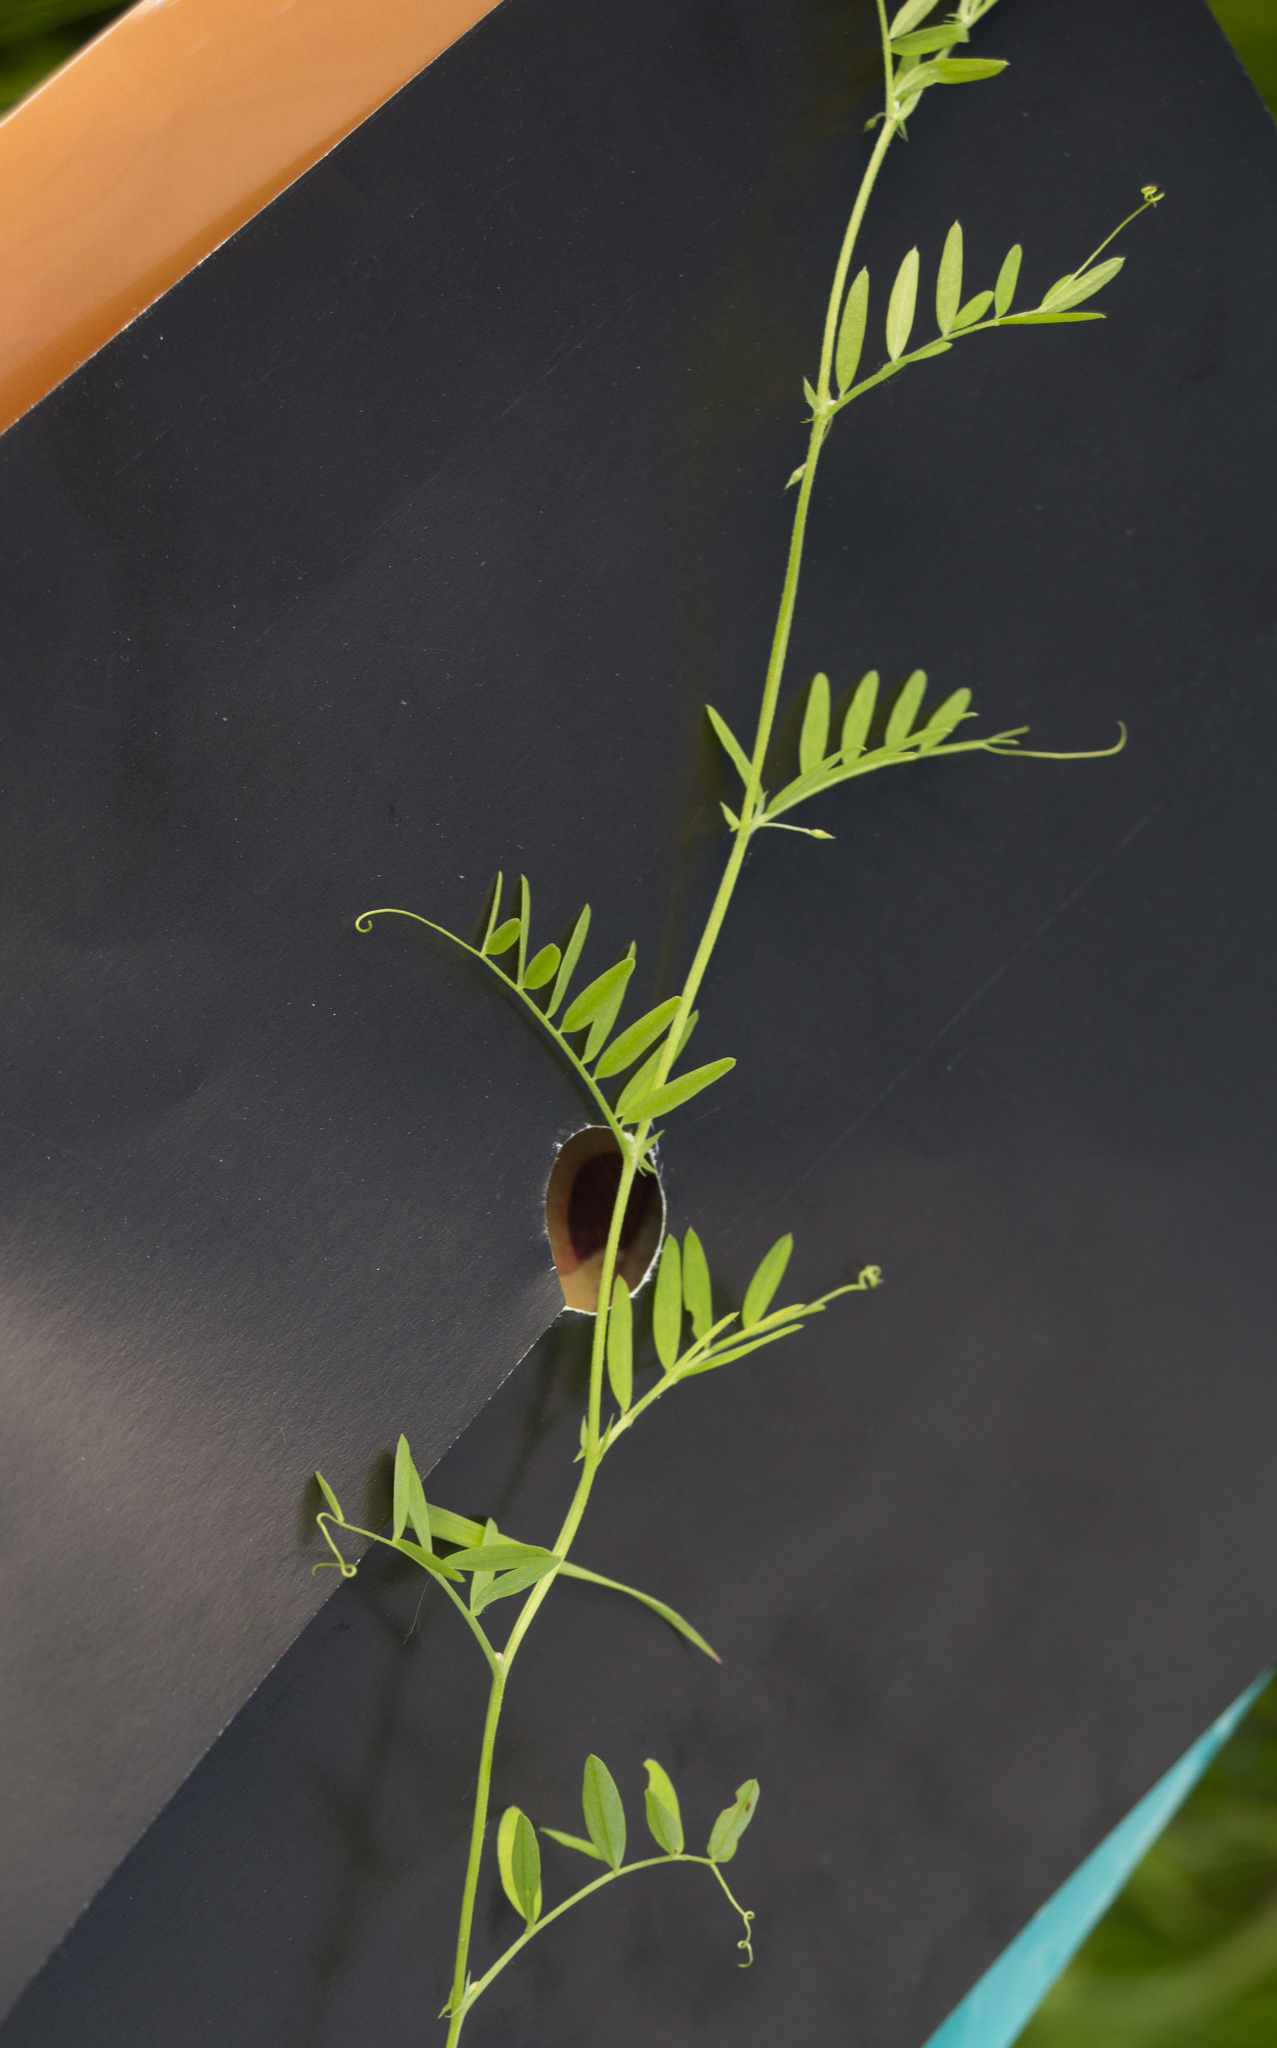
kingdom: Plantae
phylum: Tracheophyta
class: Magnoliopsida
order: Fabales
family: Fabaceae
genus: Vicia
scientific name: Vicia cracca
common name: Bird vetch
